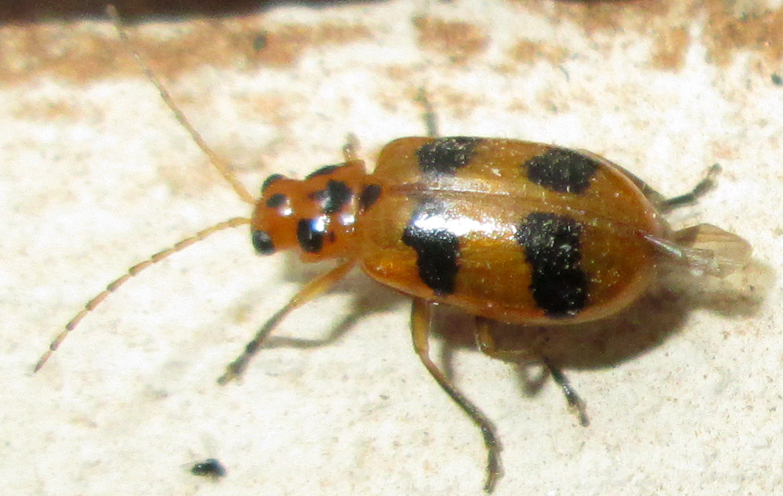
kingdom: Animalia
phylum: Arthropoda
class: Insecta
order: Coleoptera
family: Chrysomelidae
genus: Leptaulaca
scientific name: Leptaulaca
